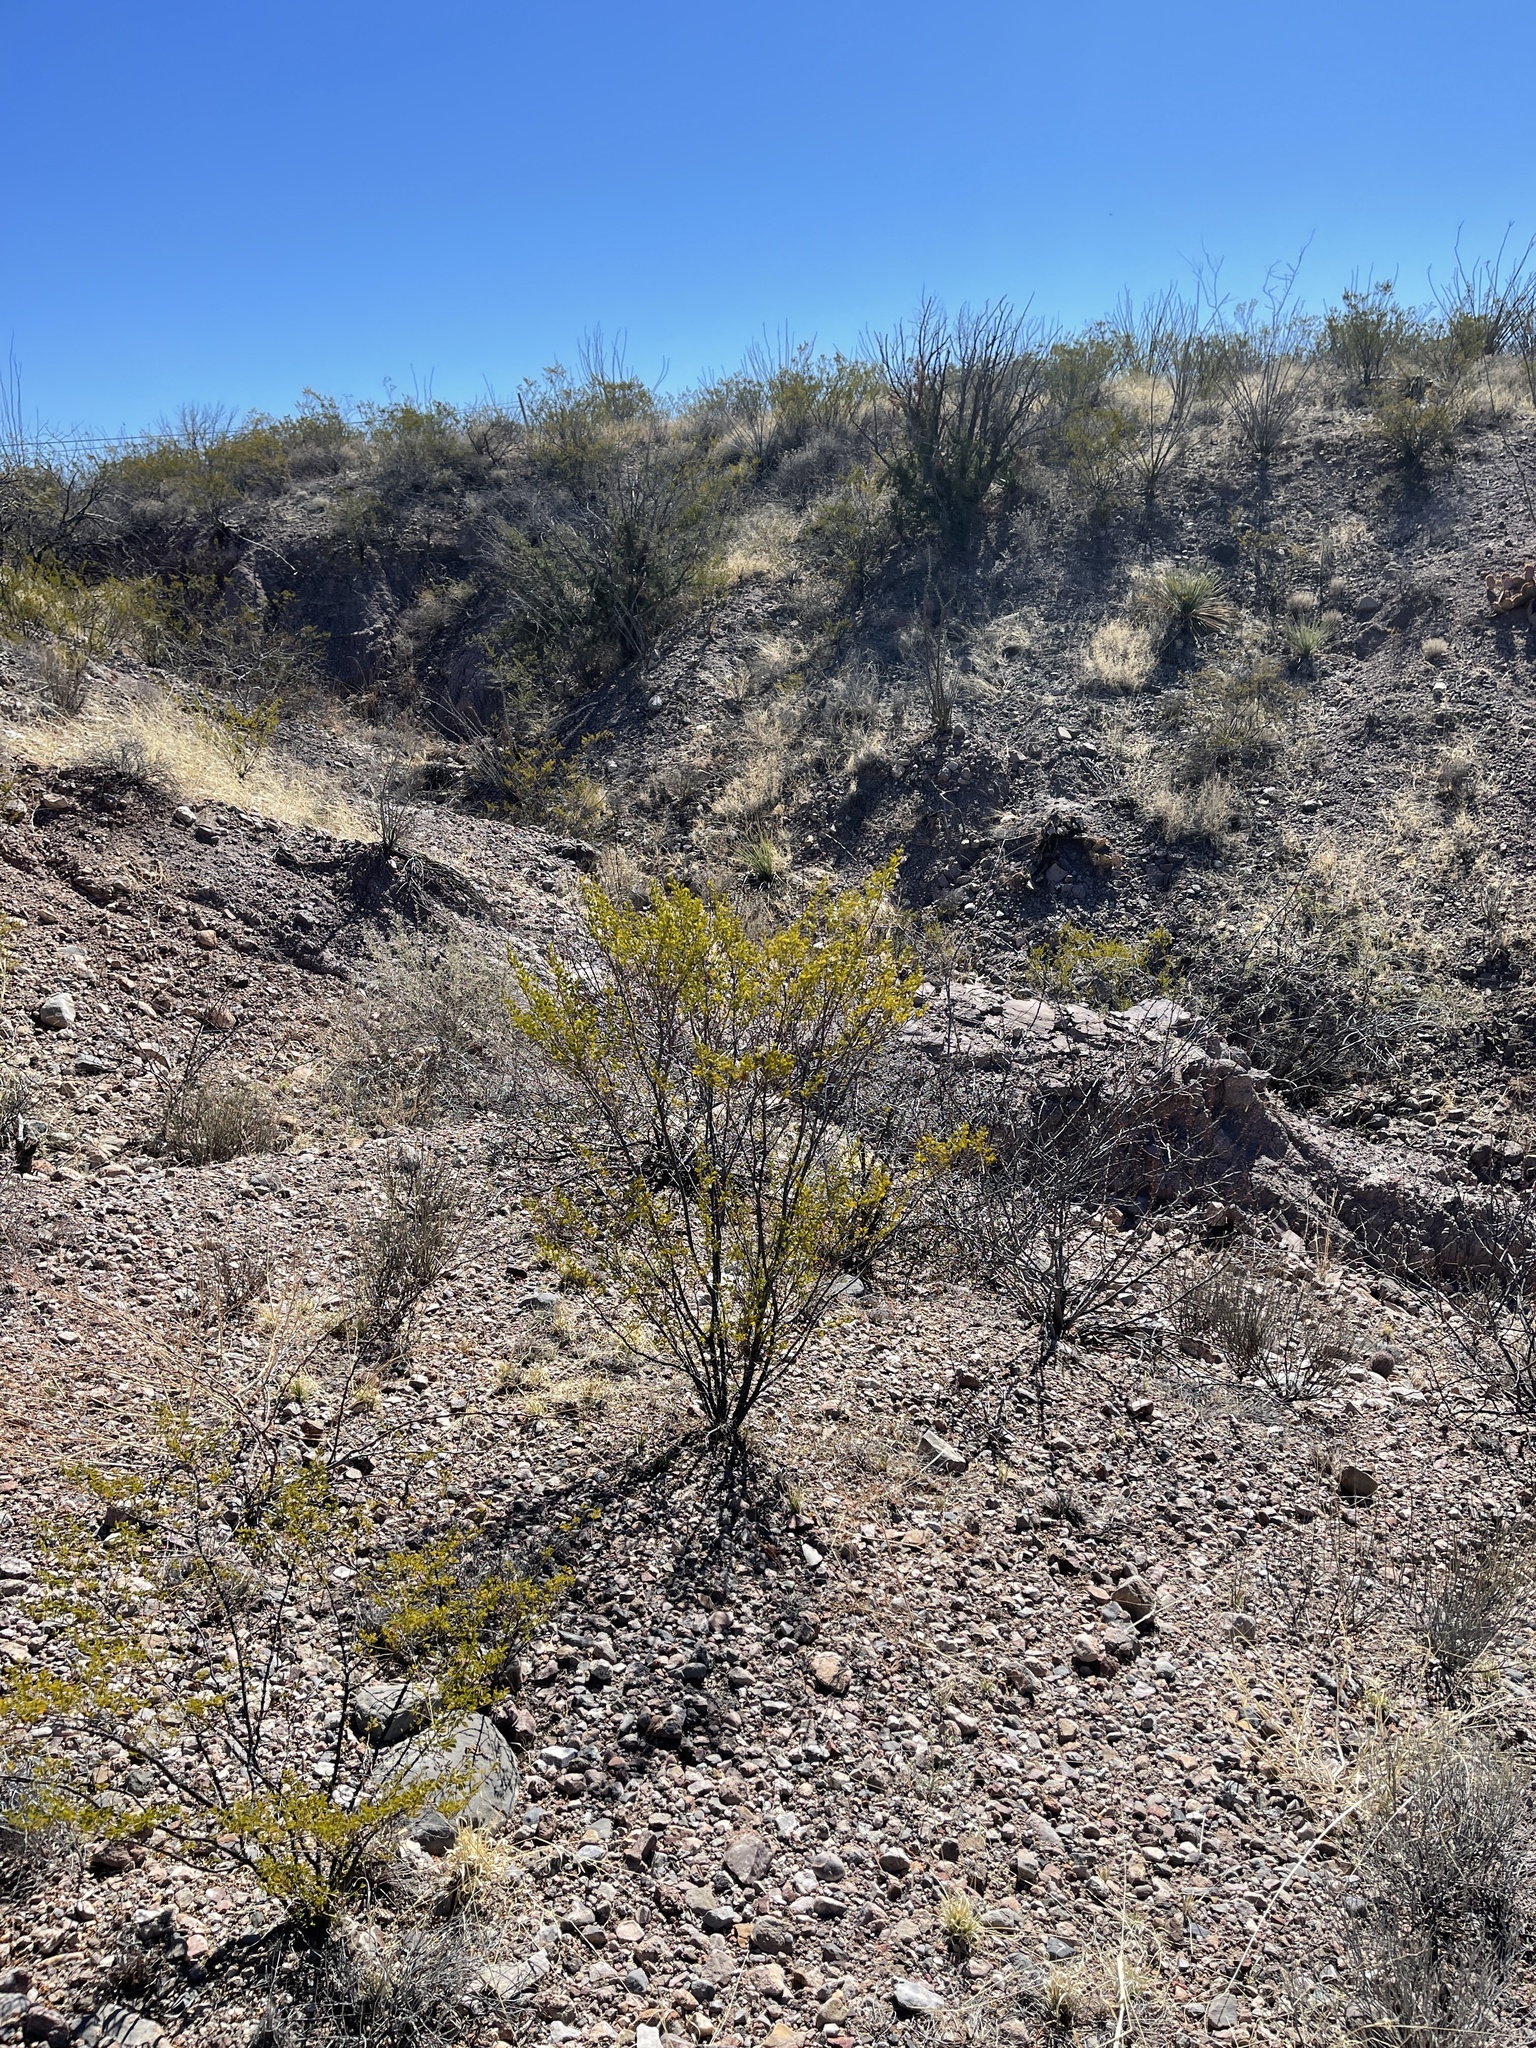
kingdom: Plantae
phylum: Tracheophyta
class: Magnoliopsida
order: Zygophyllales
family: Zygophyllaceae
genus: Larrea
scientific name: Larrea tridentata
